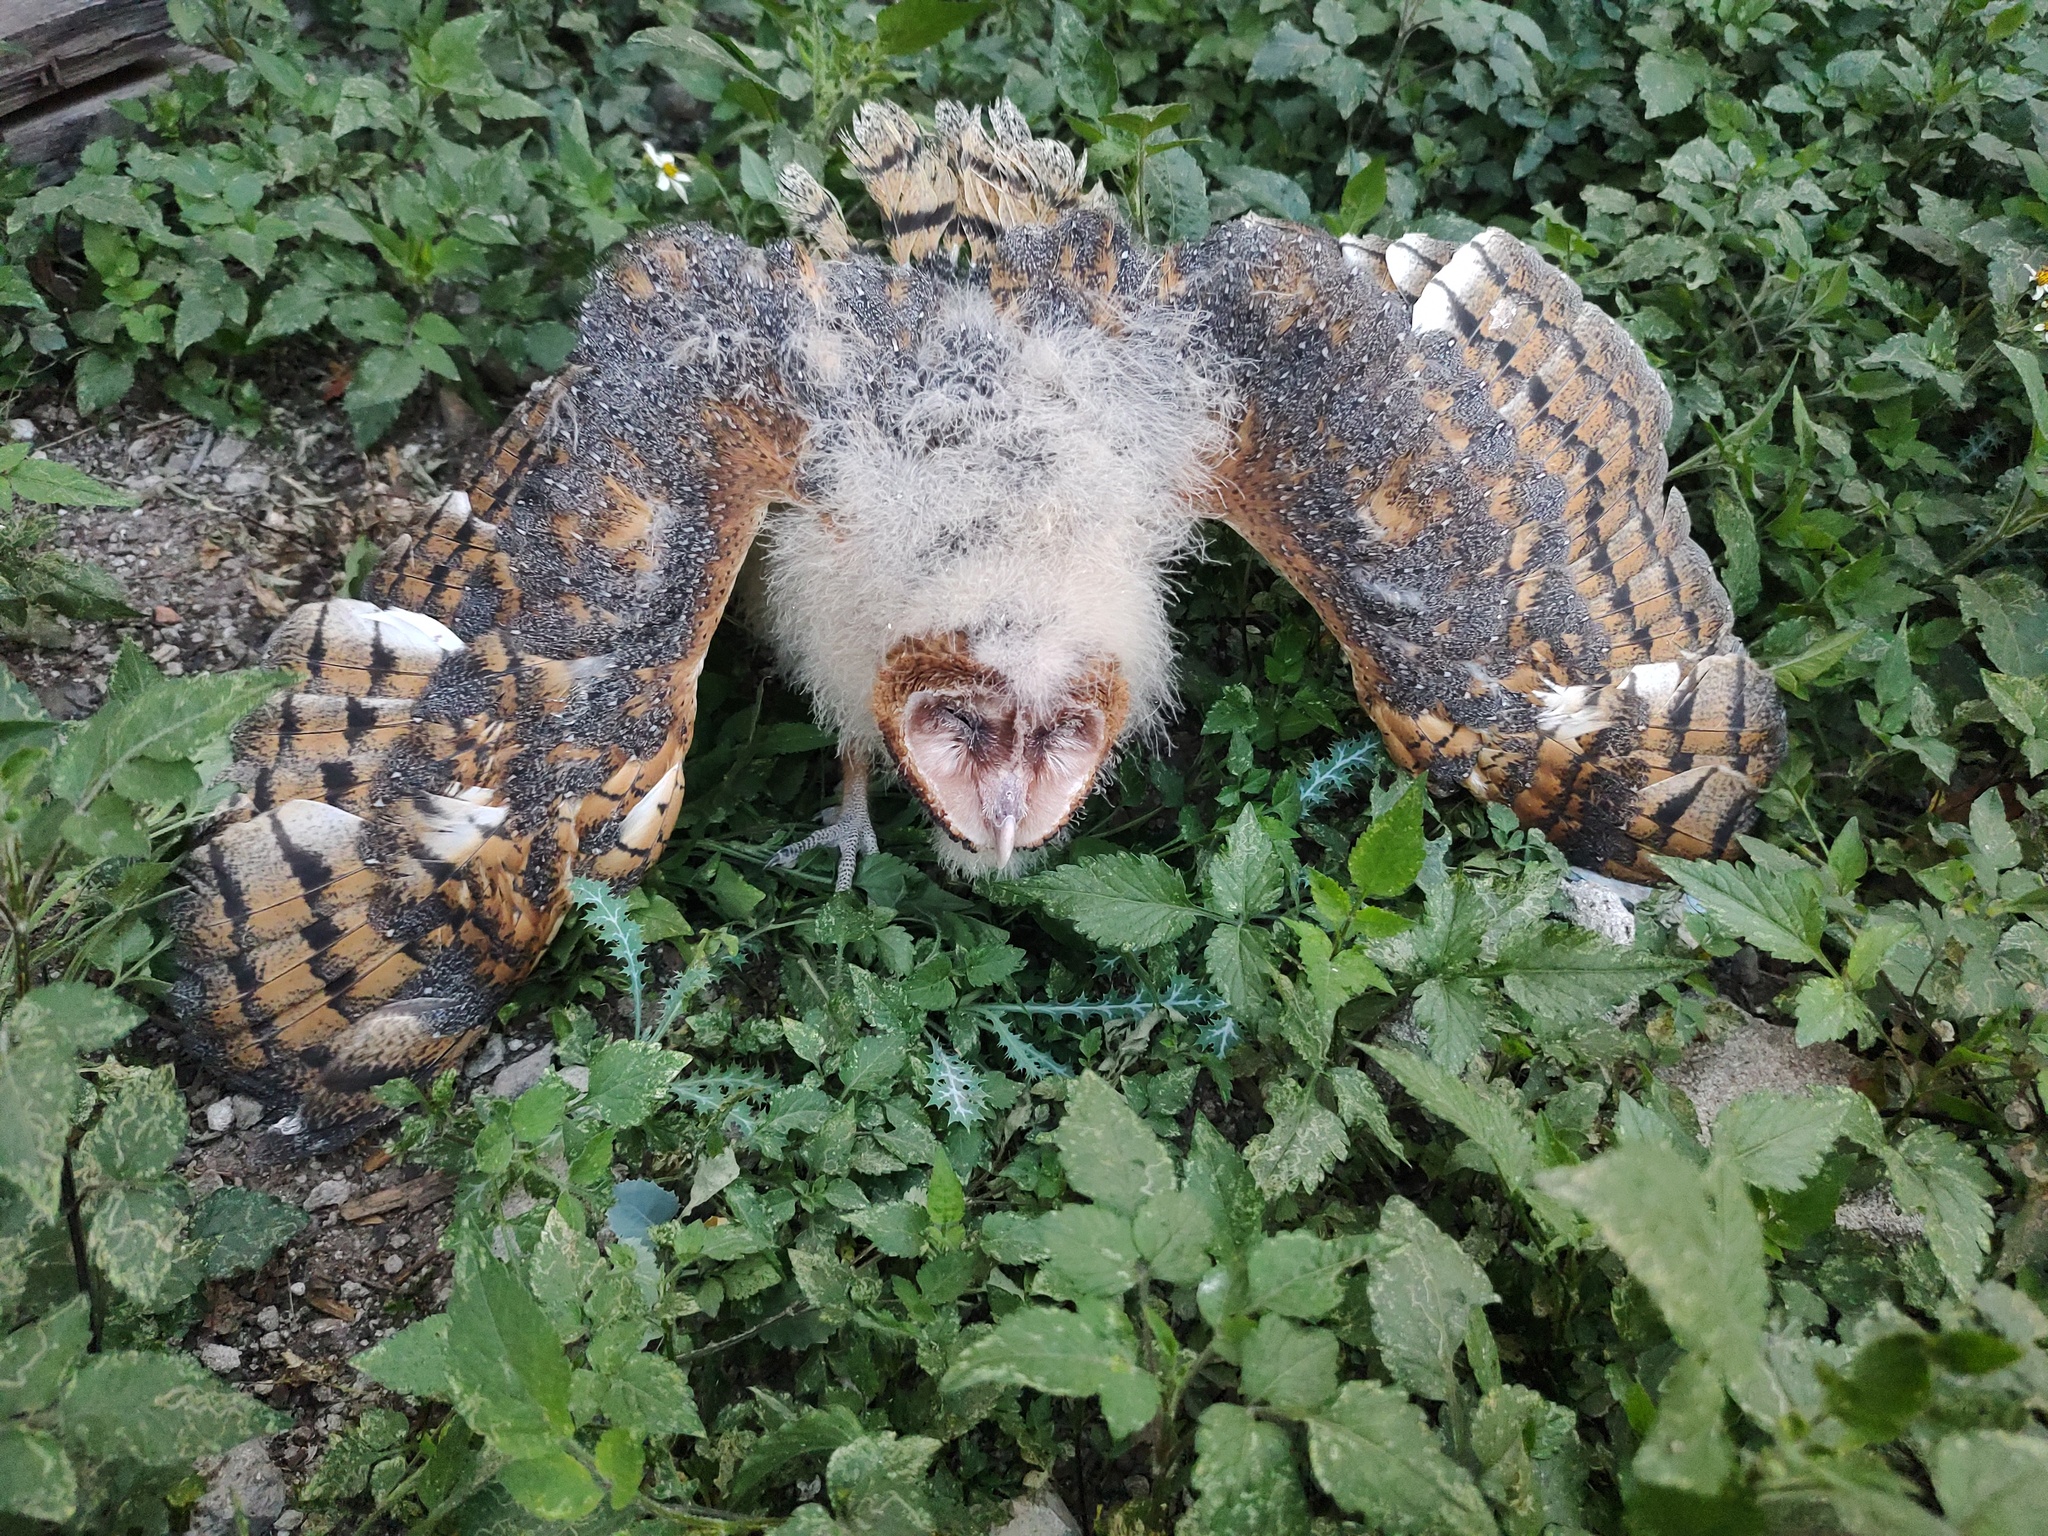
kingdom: Animalia
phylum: Chordata
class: Aves
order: Strigiformes
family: Tytonidae
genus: Tyto
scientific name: Tyto alba
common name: Barn owl
